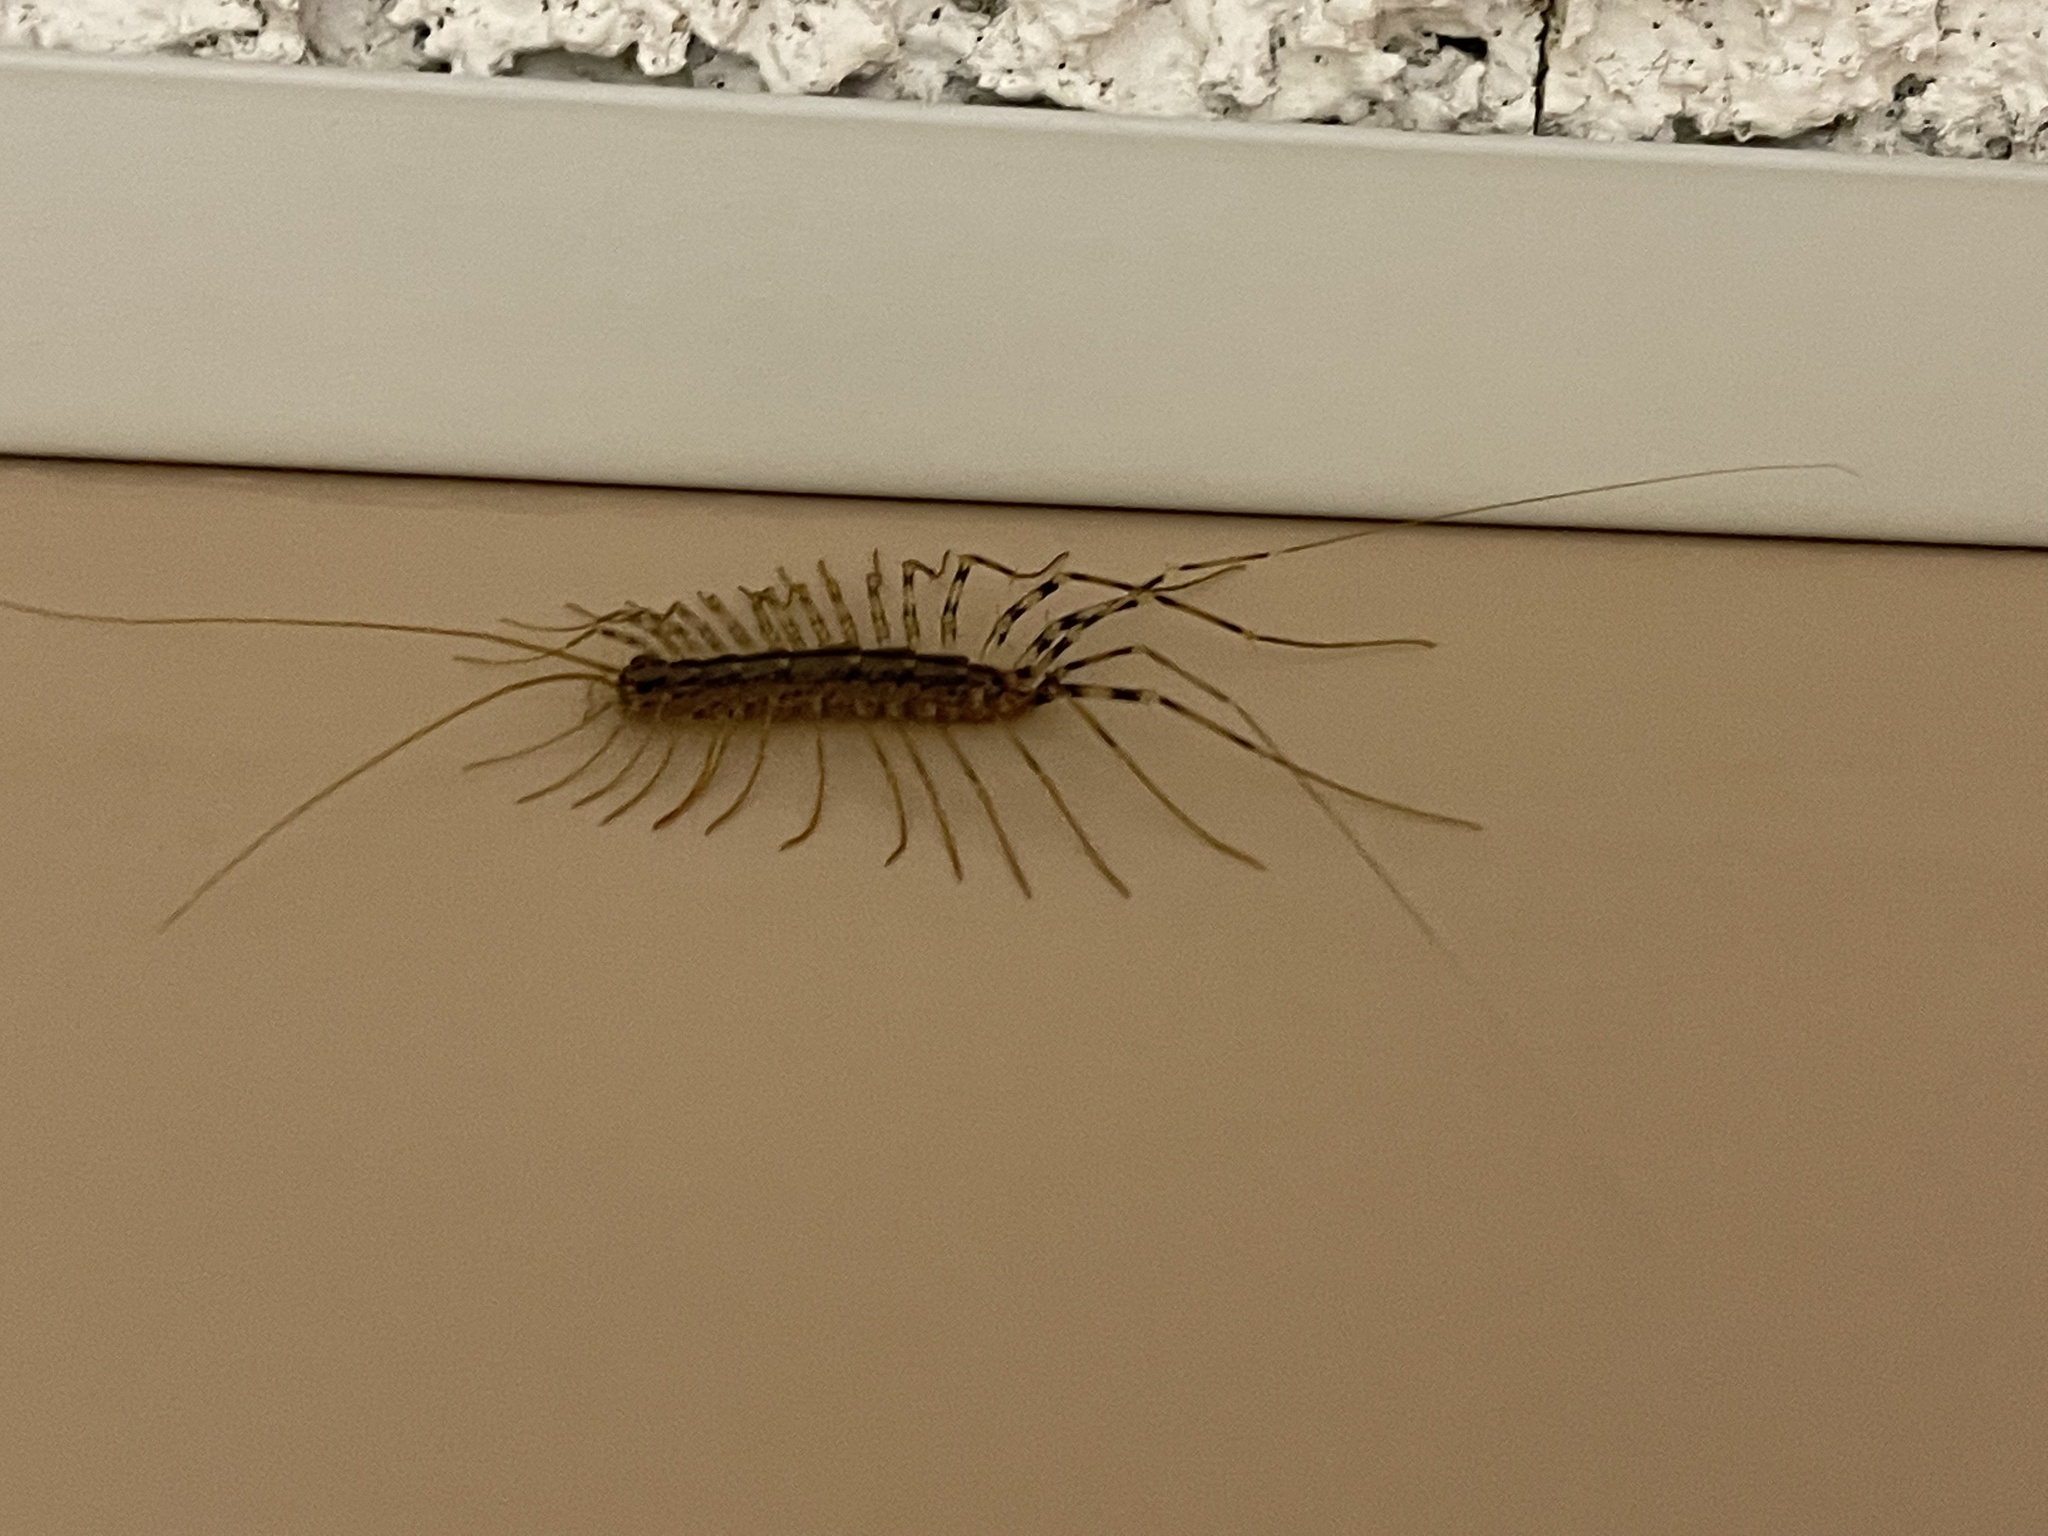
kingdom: Animalia
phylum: Arthropoda
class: Chilopoda
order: Scutigeromorpha
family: Scutigeridae
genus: Scutigera
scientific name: Scutigera coleoptrata
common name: House centipede
